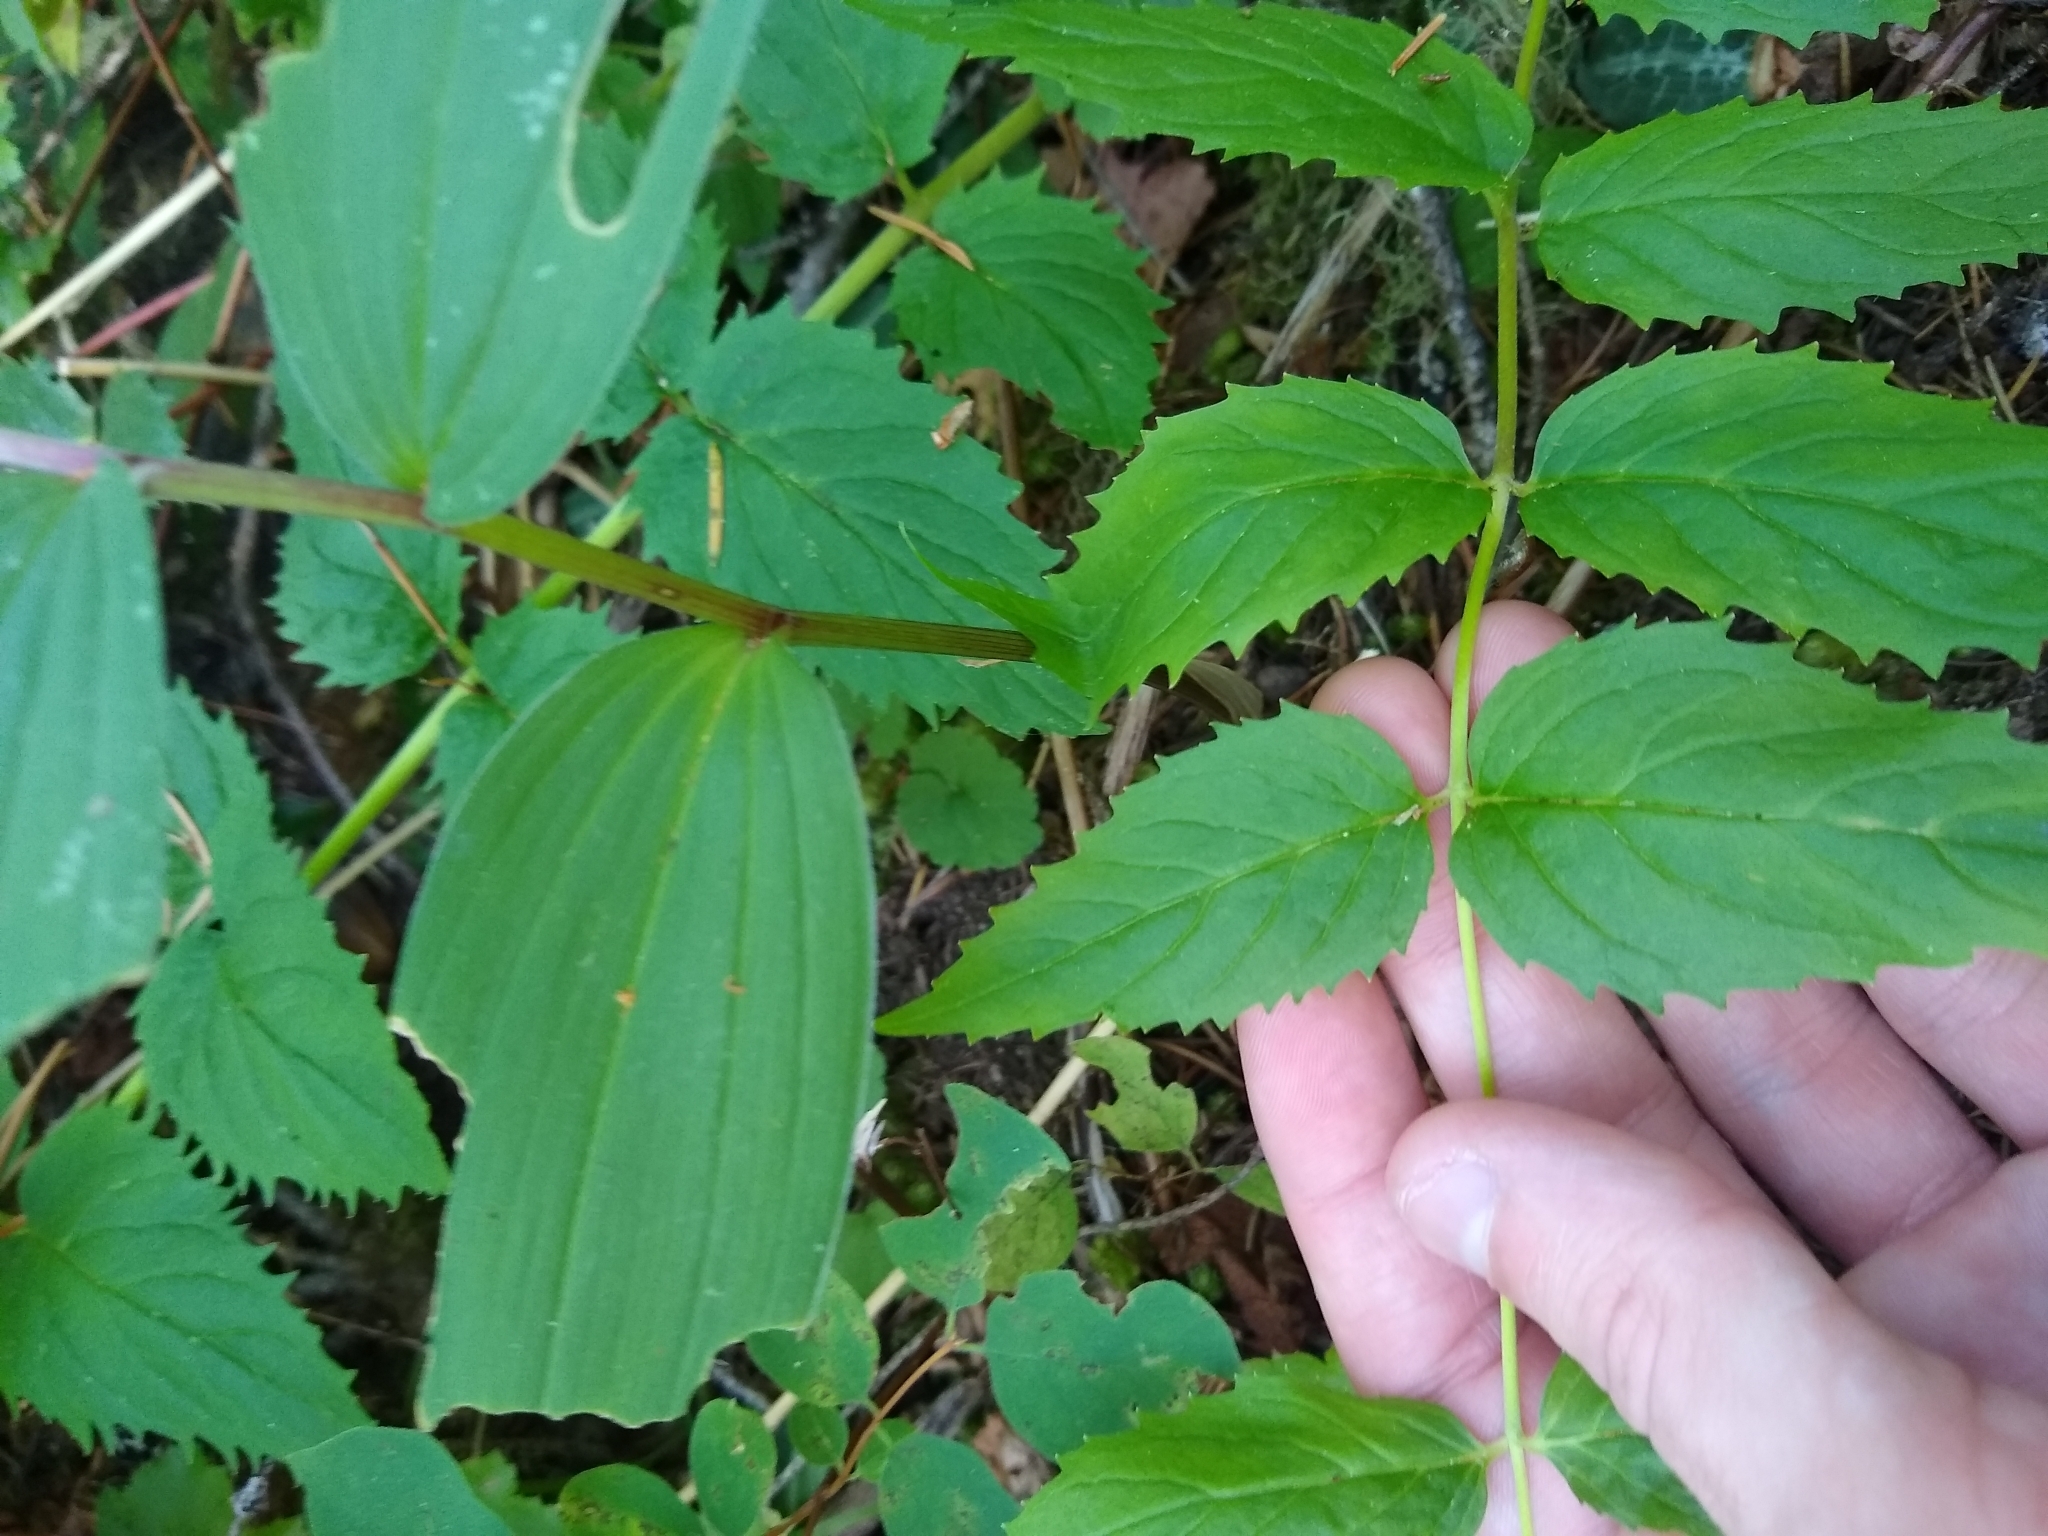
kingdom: Plantae
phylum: Tracheophyta
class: Magnoliopsida
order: Lamiales
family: Plantaginaceae
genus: Nothochelone
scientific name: Nothochelone nemorosa
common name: Woodland beardtongue
